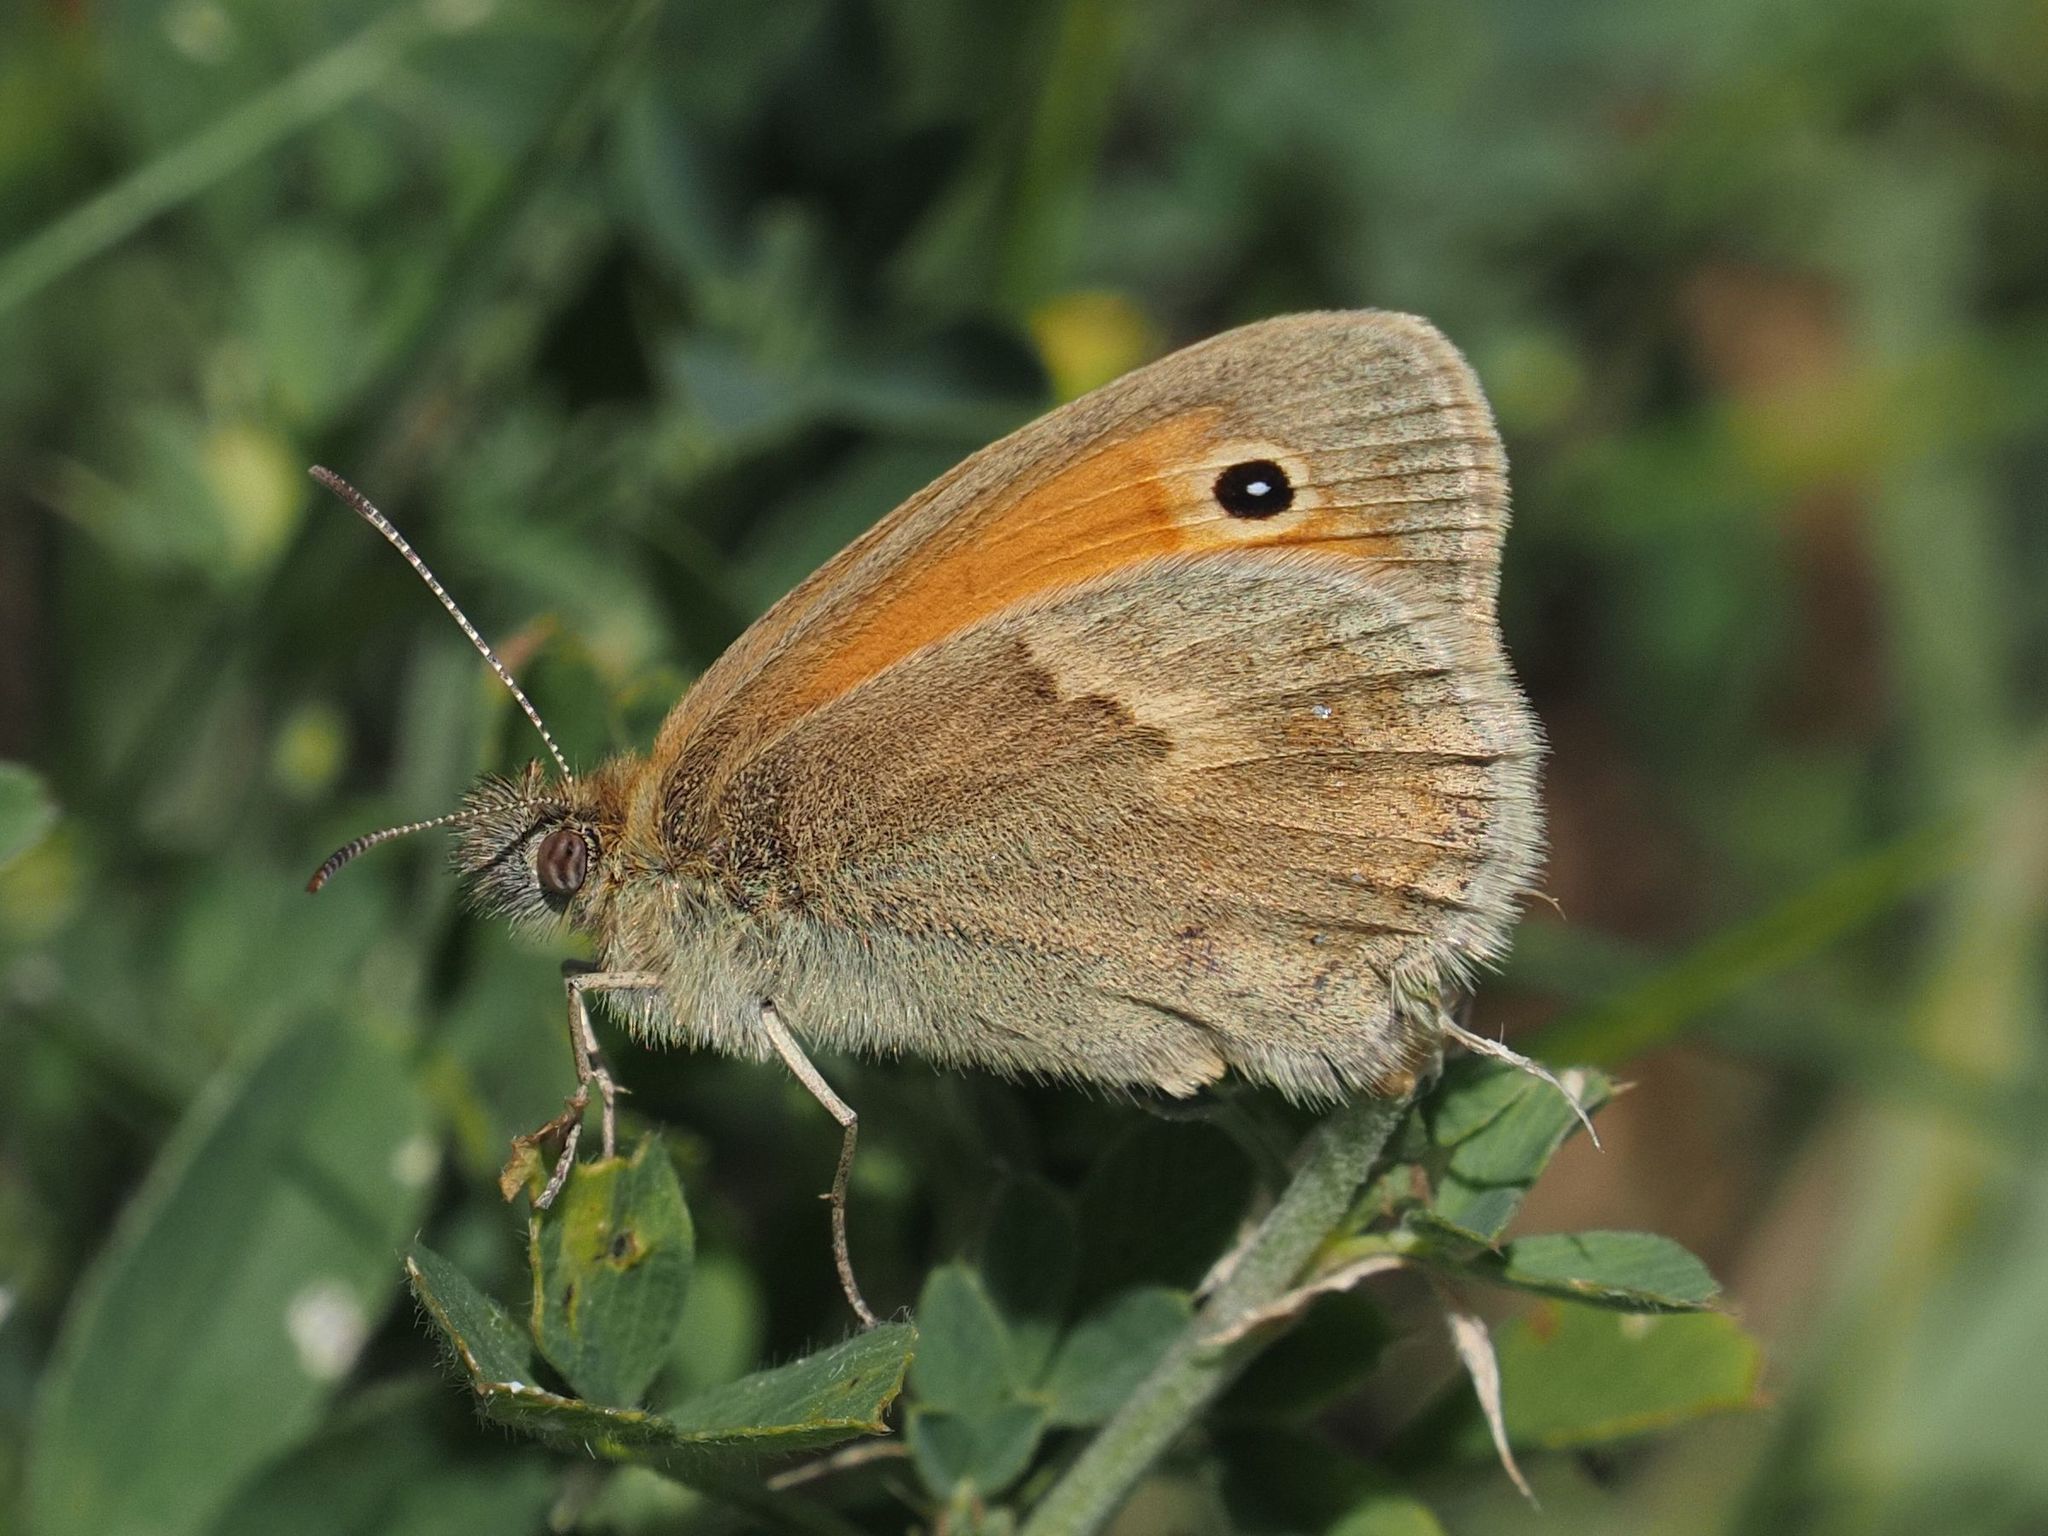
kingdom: Animalia
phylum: Arthropoda
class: Insecta
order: Lepidoptera
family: Nymphalidae
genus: Coenonympha
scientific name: Coenonympha pamphilus
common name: Small heath
